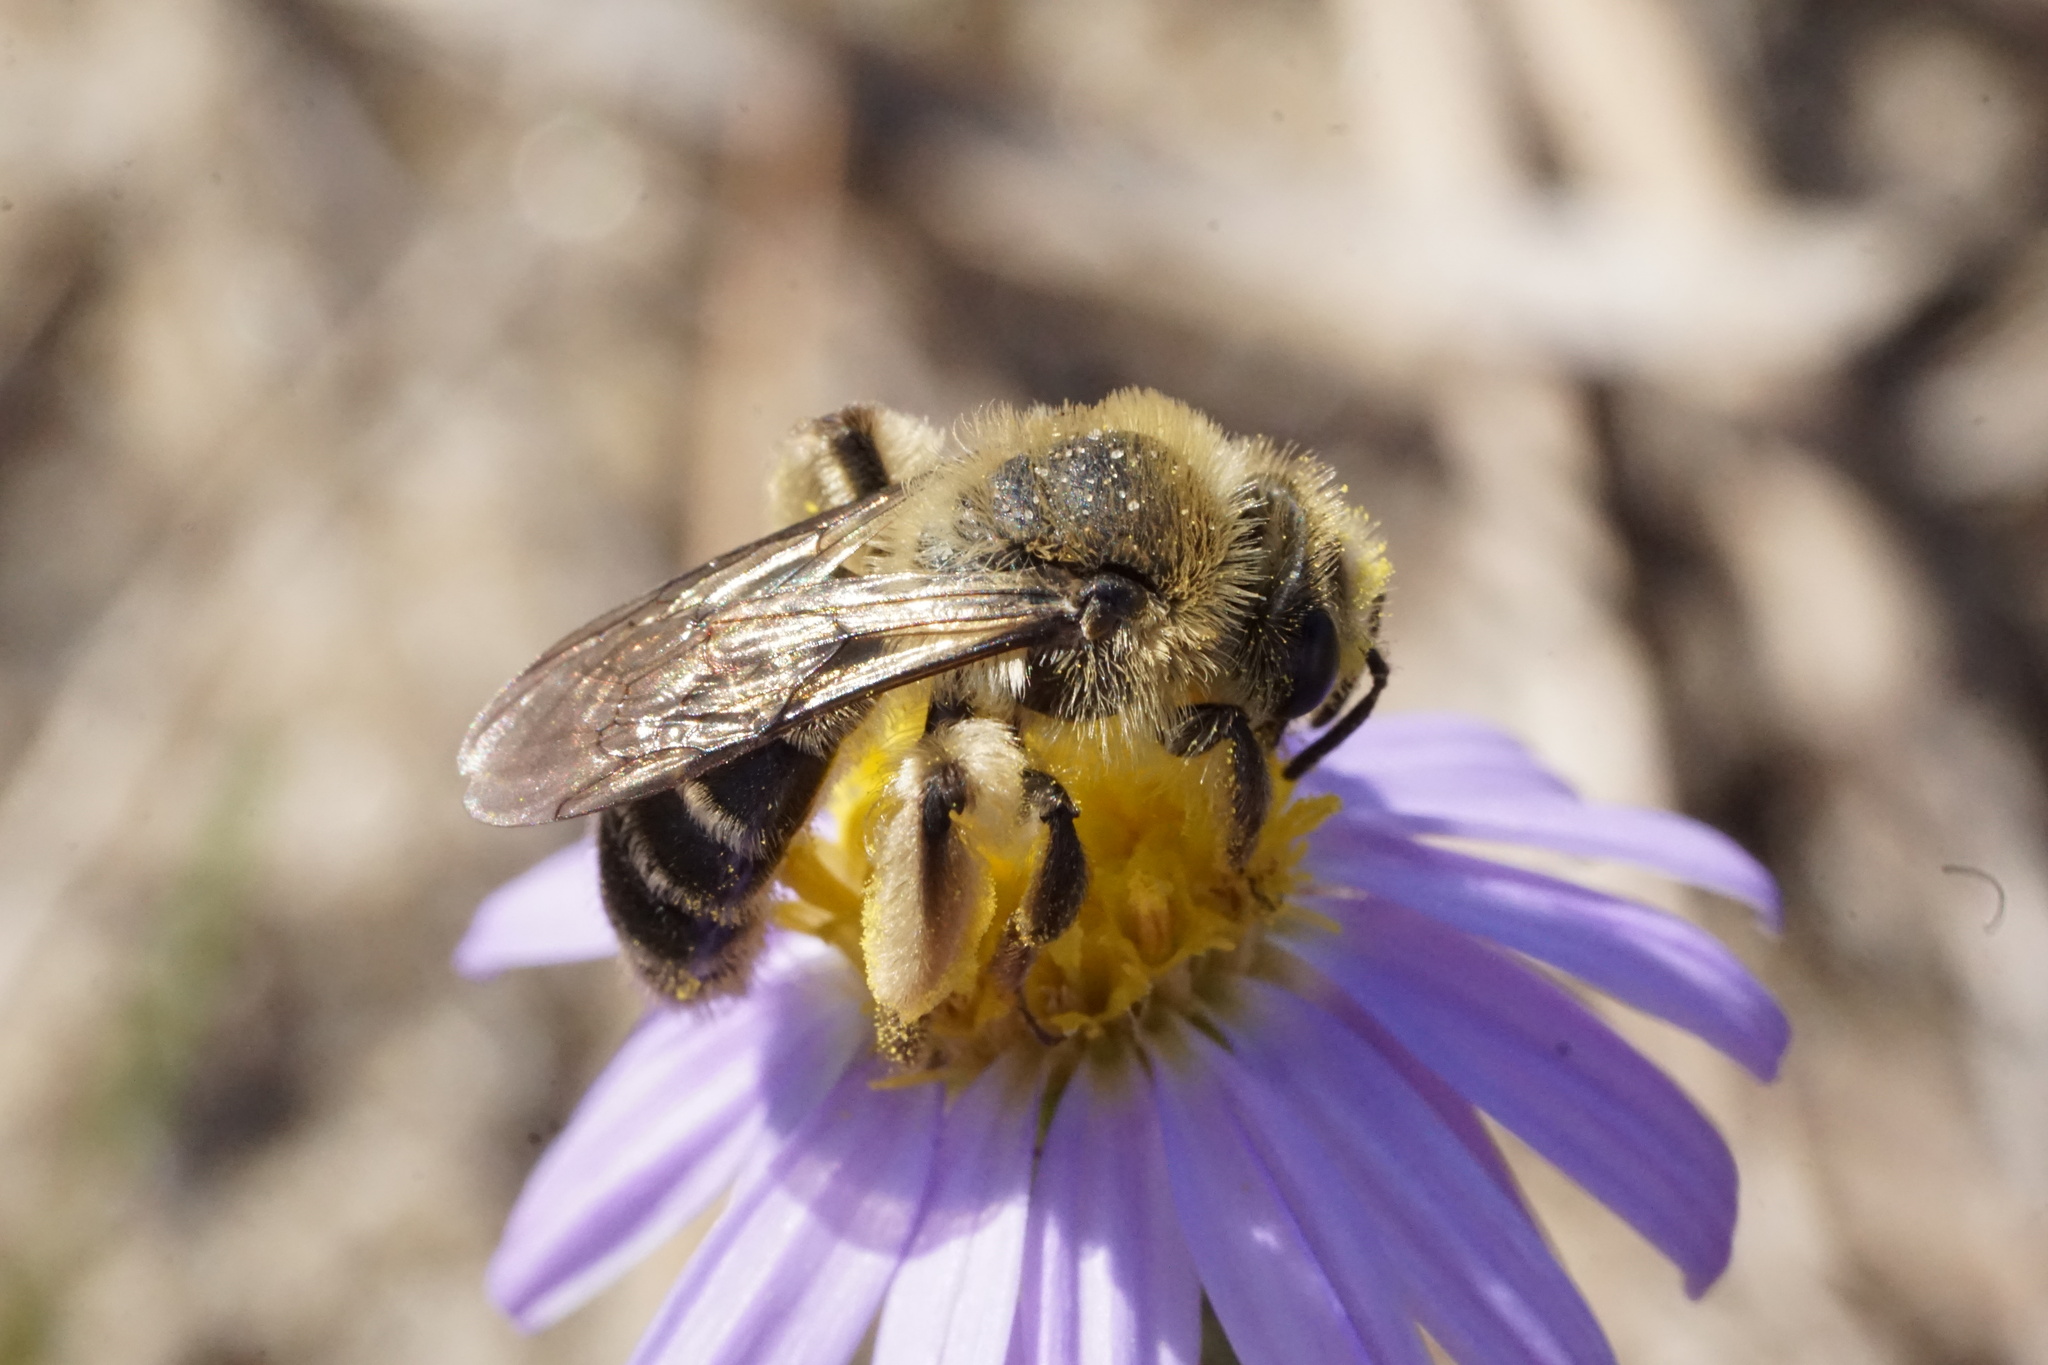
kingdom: Animalia
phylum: Arthropoda
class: Insecta
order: Hymenoptera
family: Andrenidae
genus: Andrena
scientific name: Andrena asteris
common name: Aster mining bee
